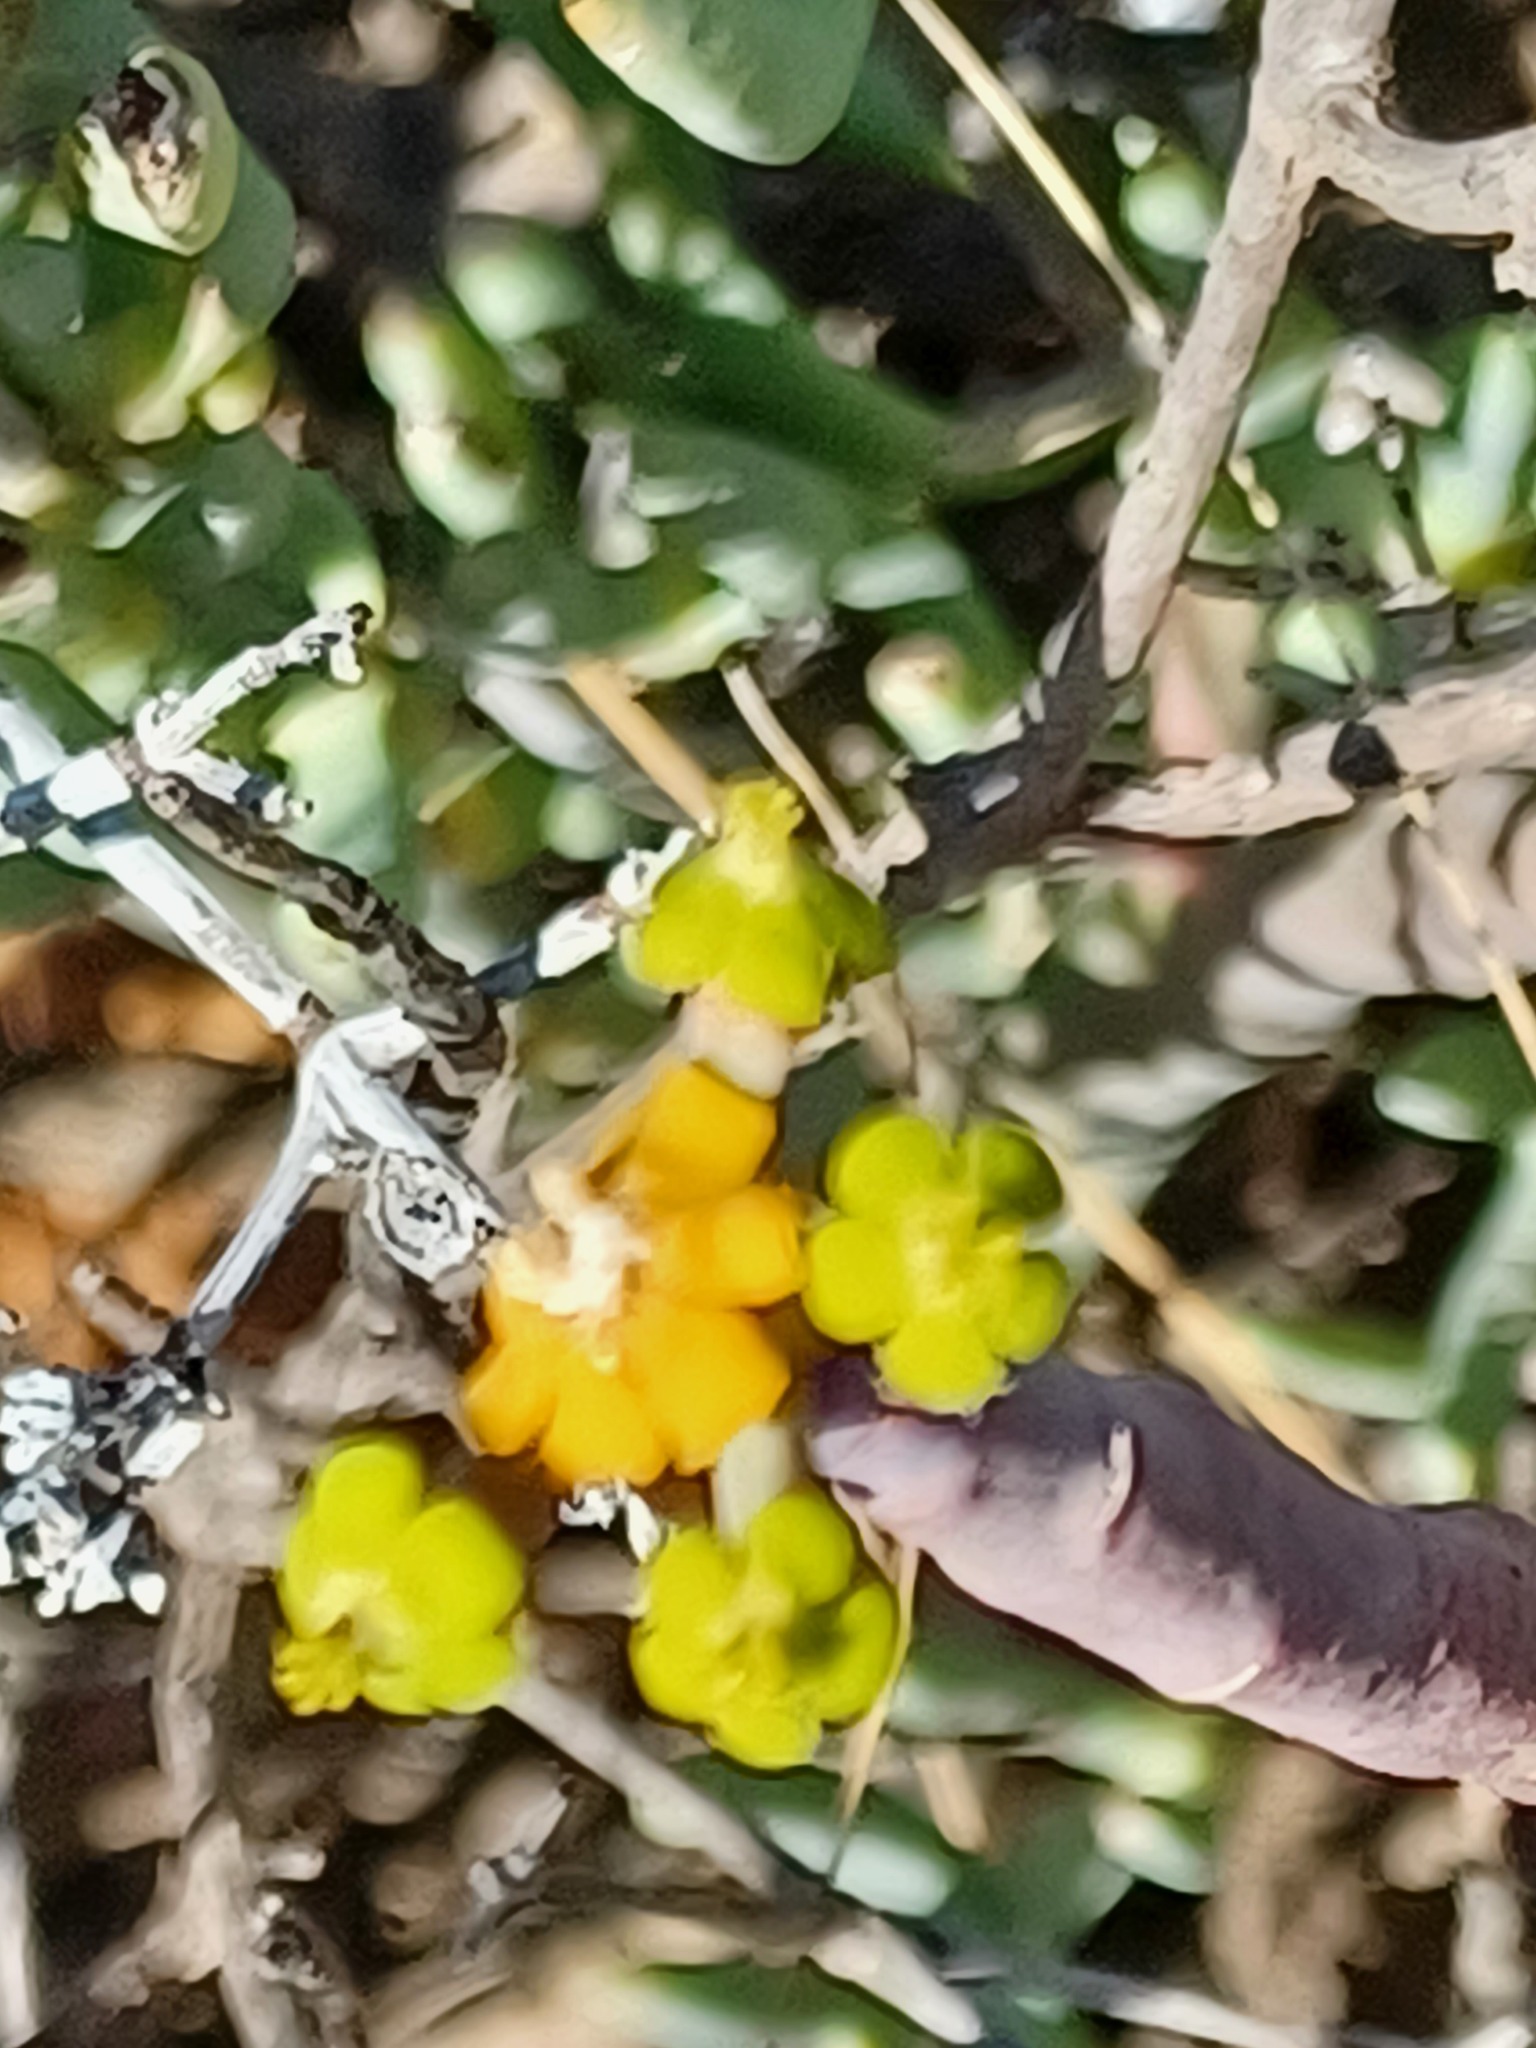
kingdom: Plantae
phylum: Tracheophyta
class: Magnoliopsida
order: Malpighiales
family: Euphorbiaceae
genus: Euphorbia
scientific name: Euphorbia mauritanica
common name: Jackal's-food
